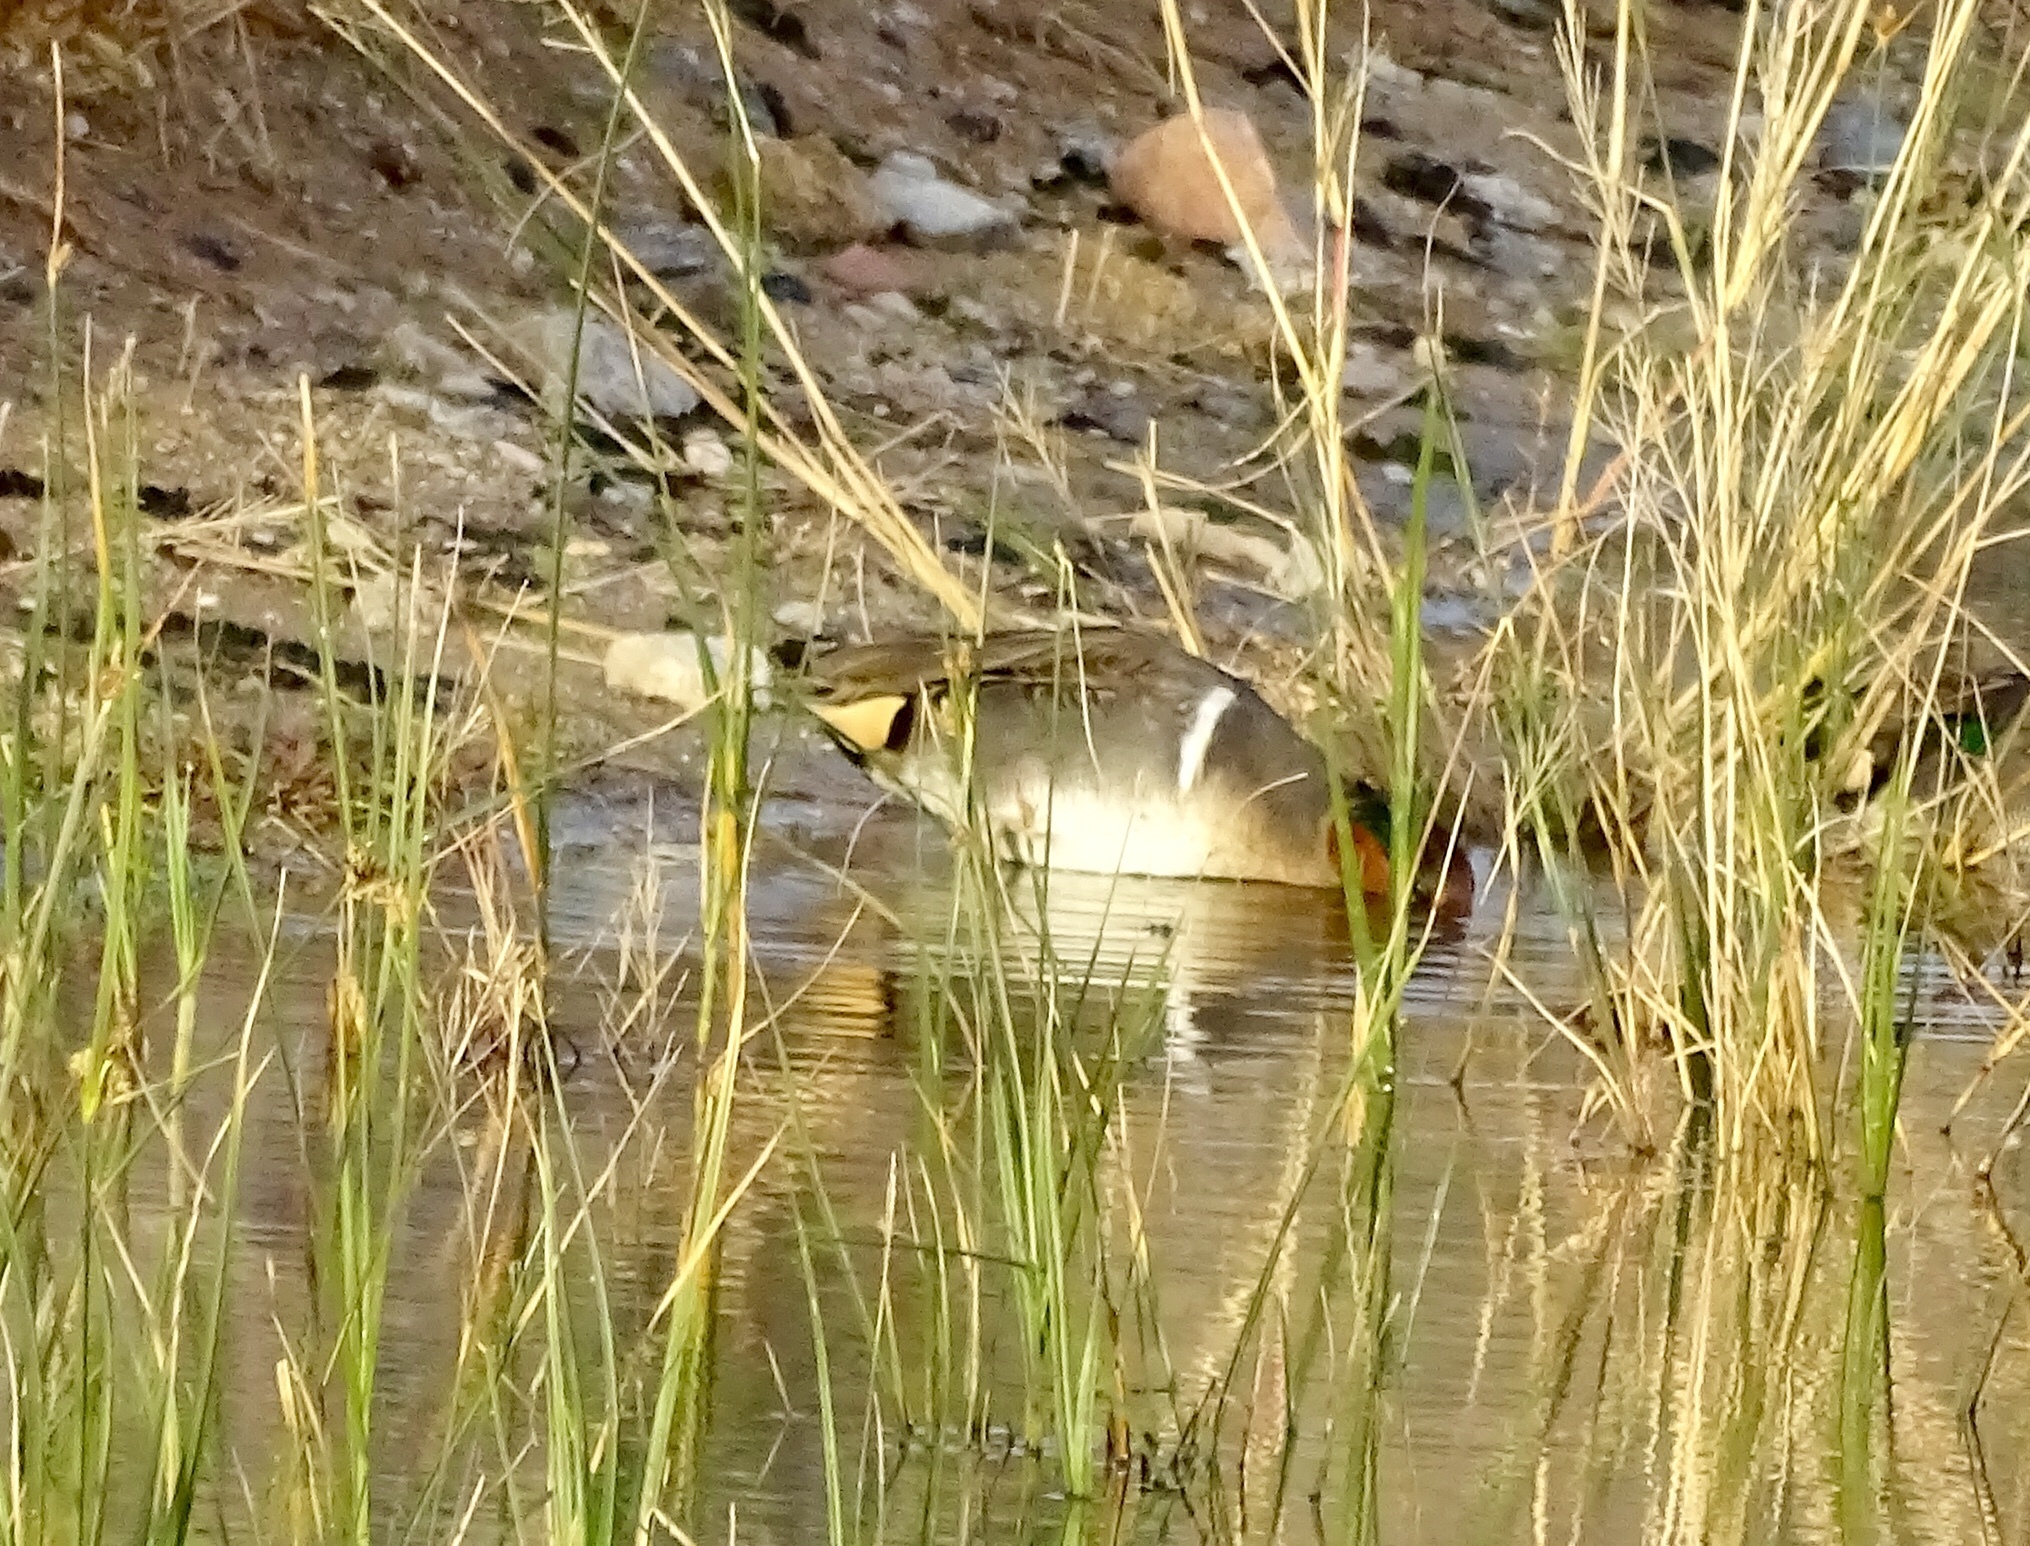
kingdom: Animalia
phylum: Chordata
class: Aves
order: Anseriformes
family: Anatidae
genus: Anas
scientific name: Anas crecca
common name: Eurasian teal
